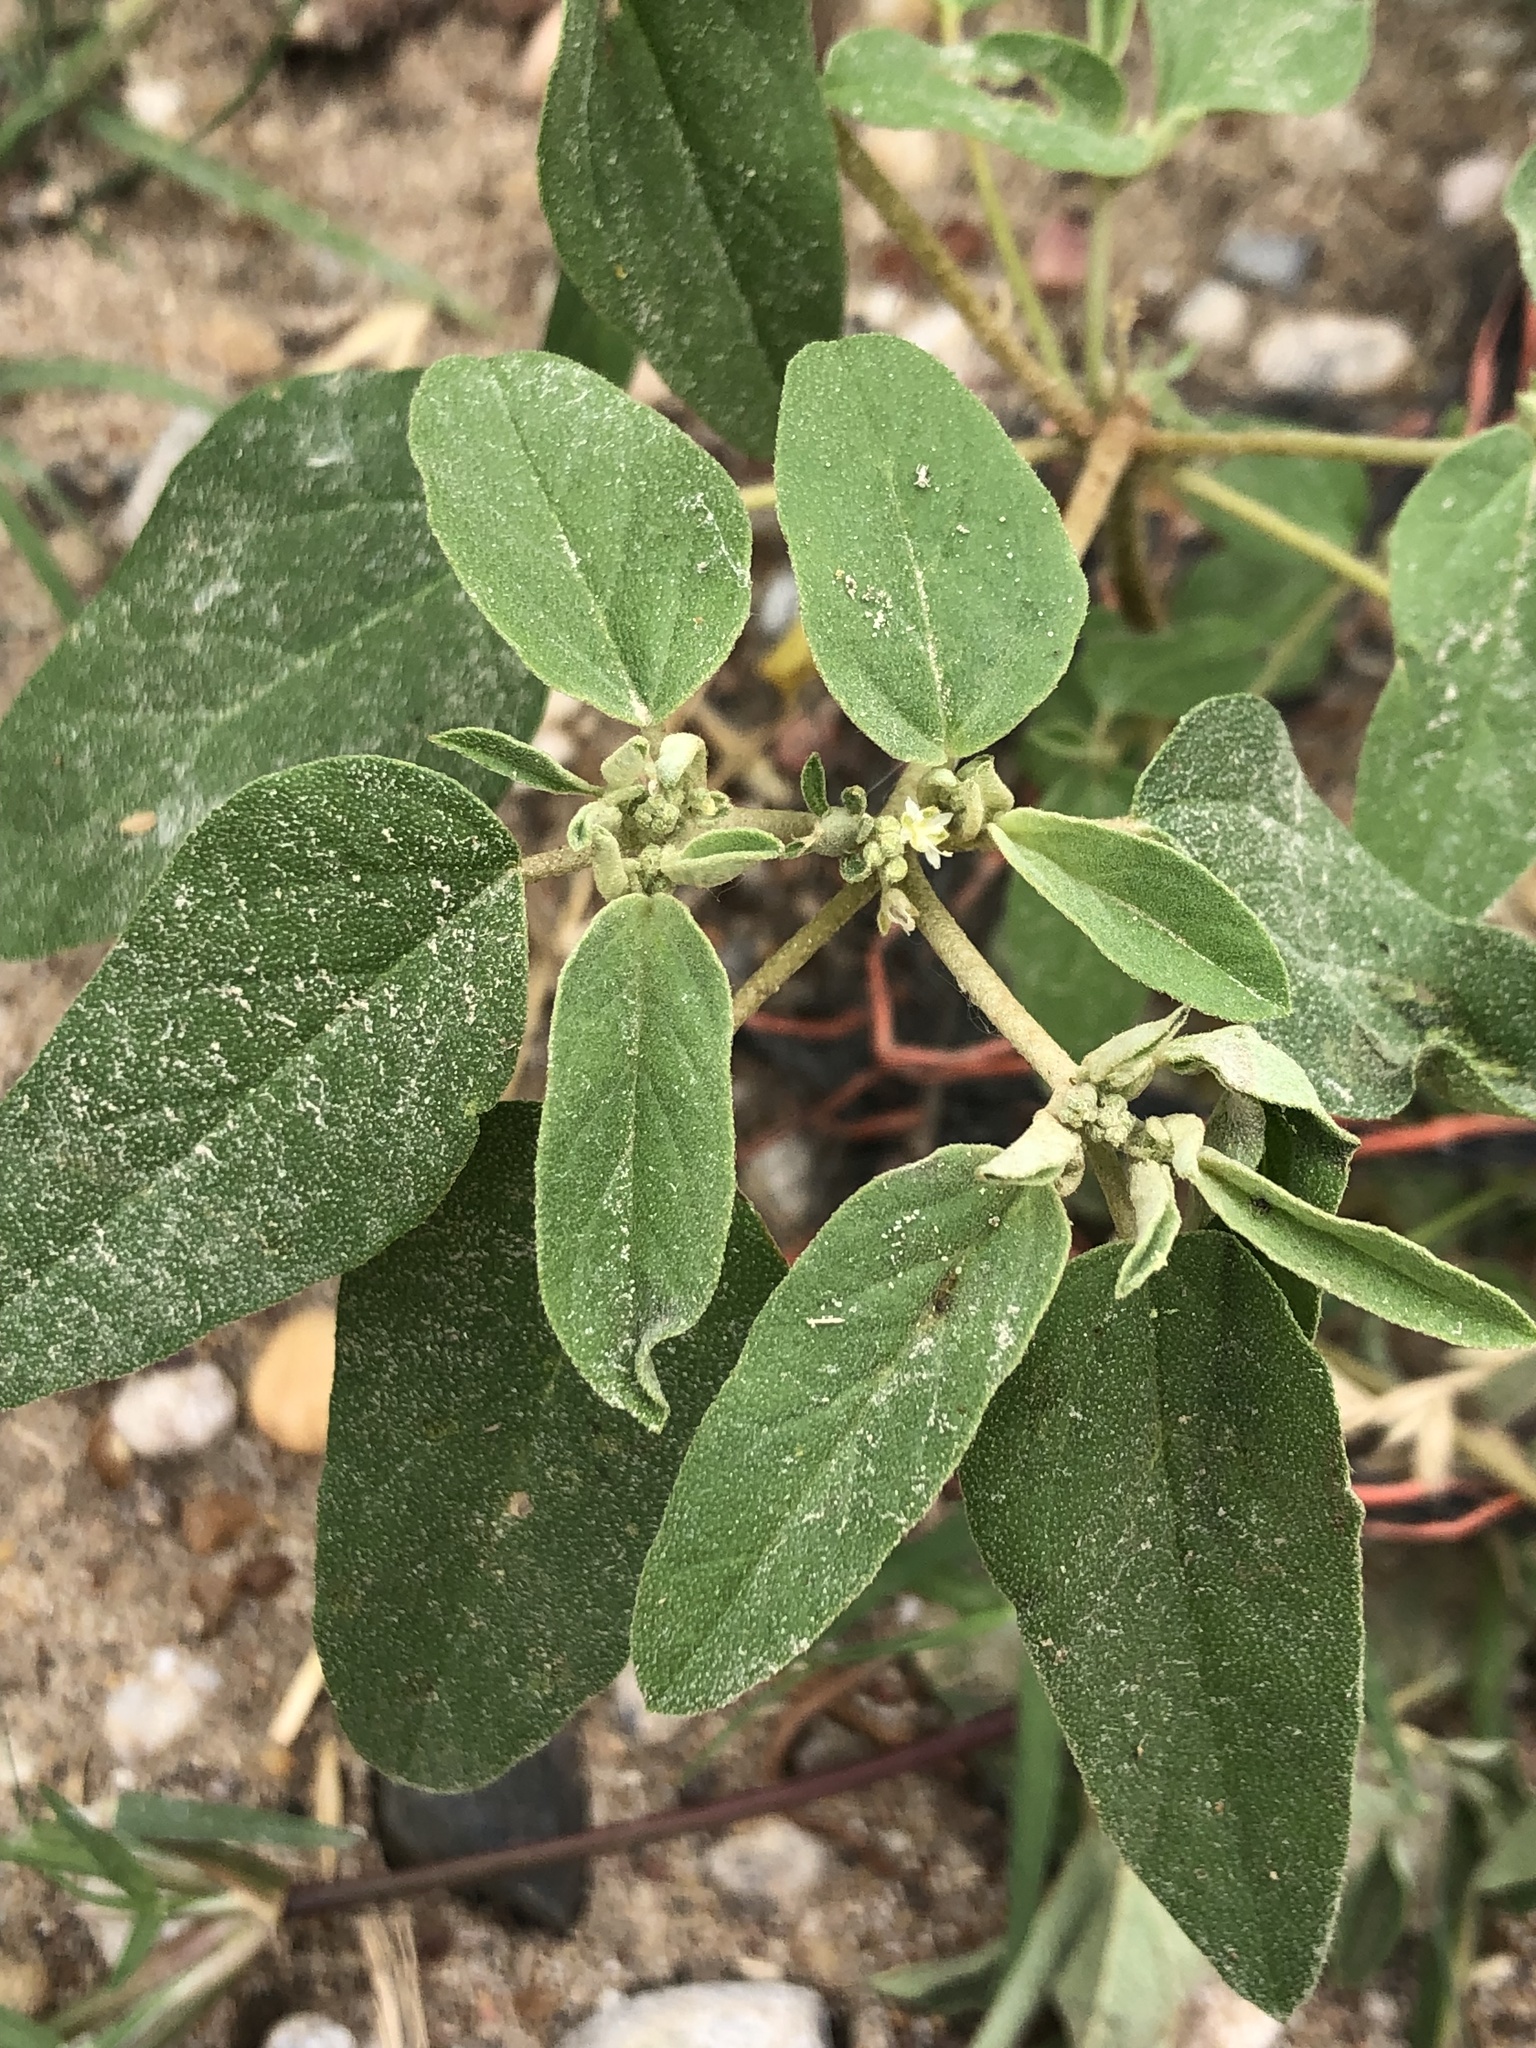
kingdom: Plantae
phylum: Tracheophyta
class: Magnoliopsida
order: Malpighiales
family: Euphorbiaceae
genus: Croton
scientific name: Croton monanthogynus
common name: One-seed croton
